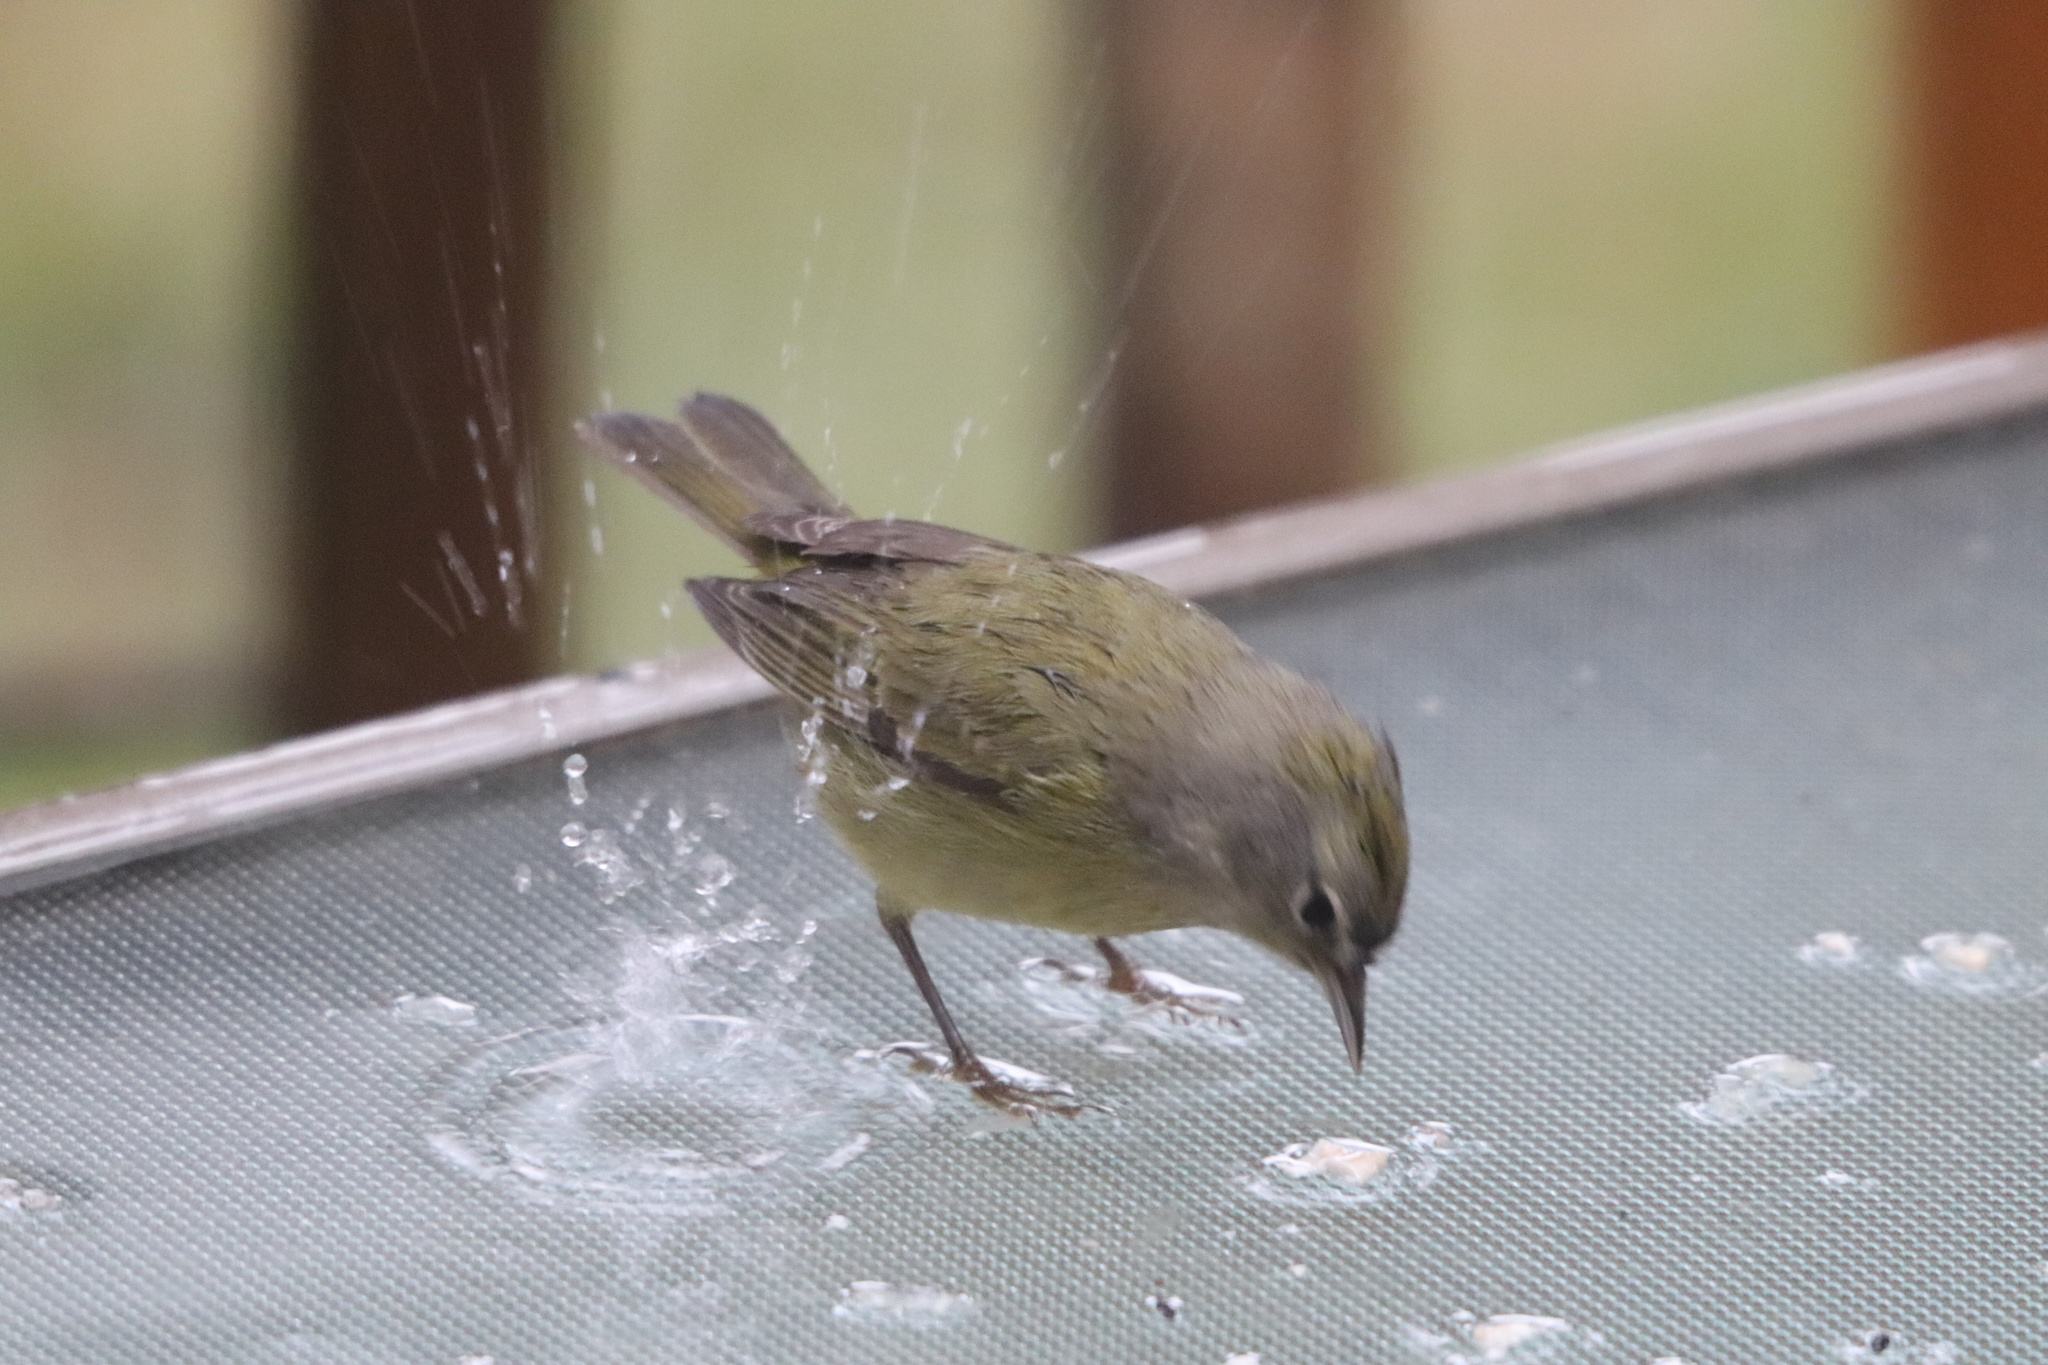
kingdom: Animalia
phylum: Chordata
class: Aves
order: Passeriformes
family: Parulidae
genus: Leiothlypis
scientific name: Leiothlypis celata
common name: Orange-crowned warbler
